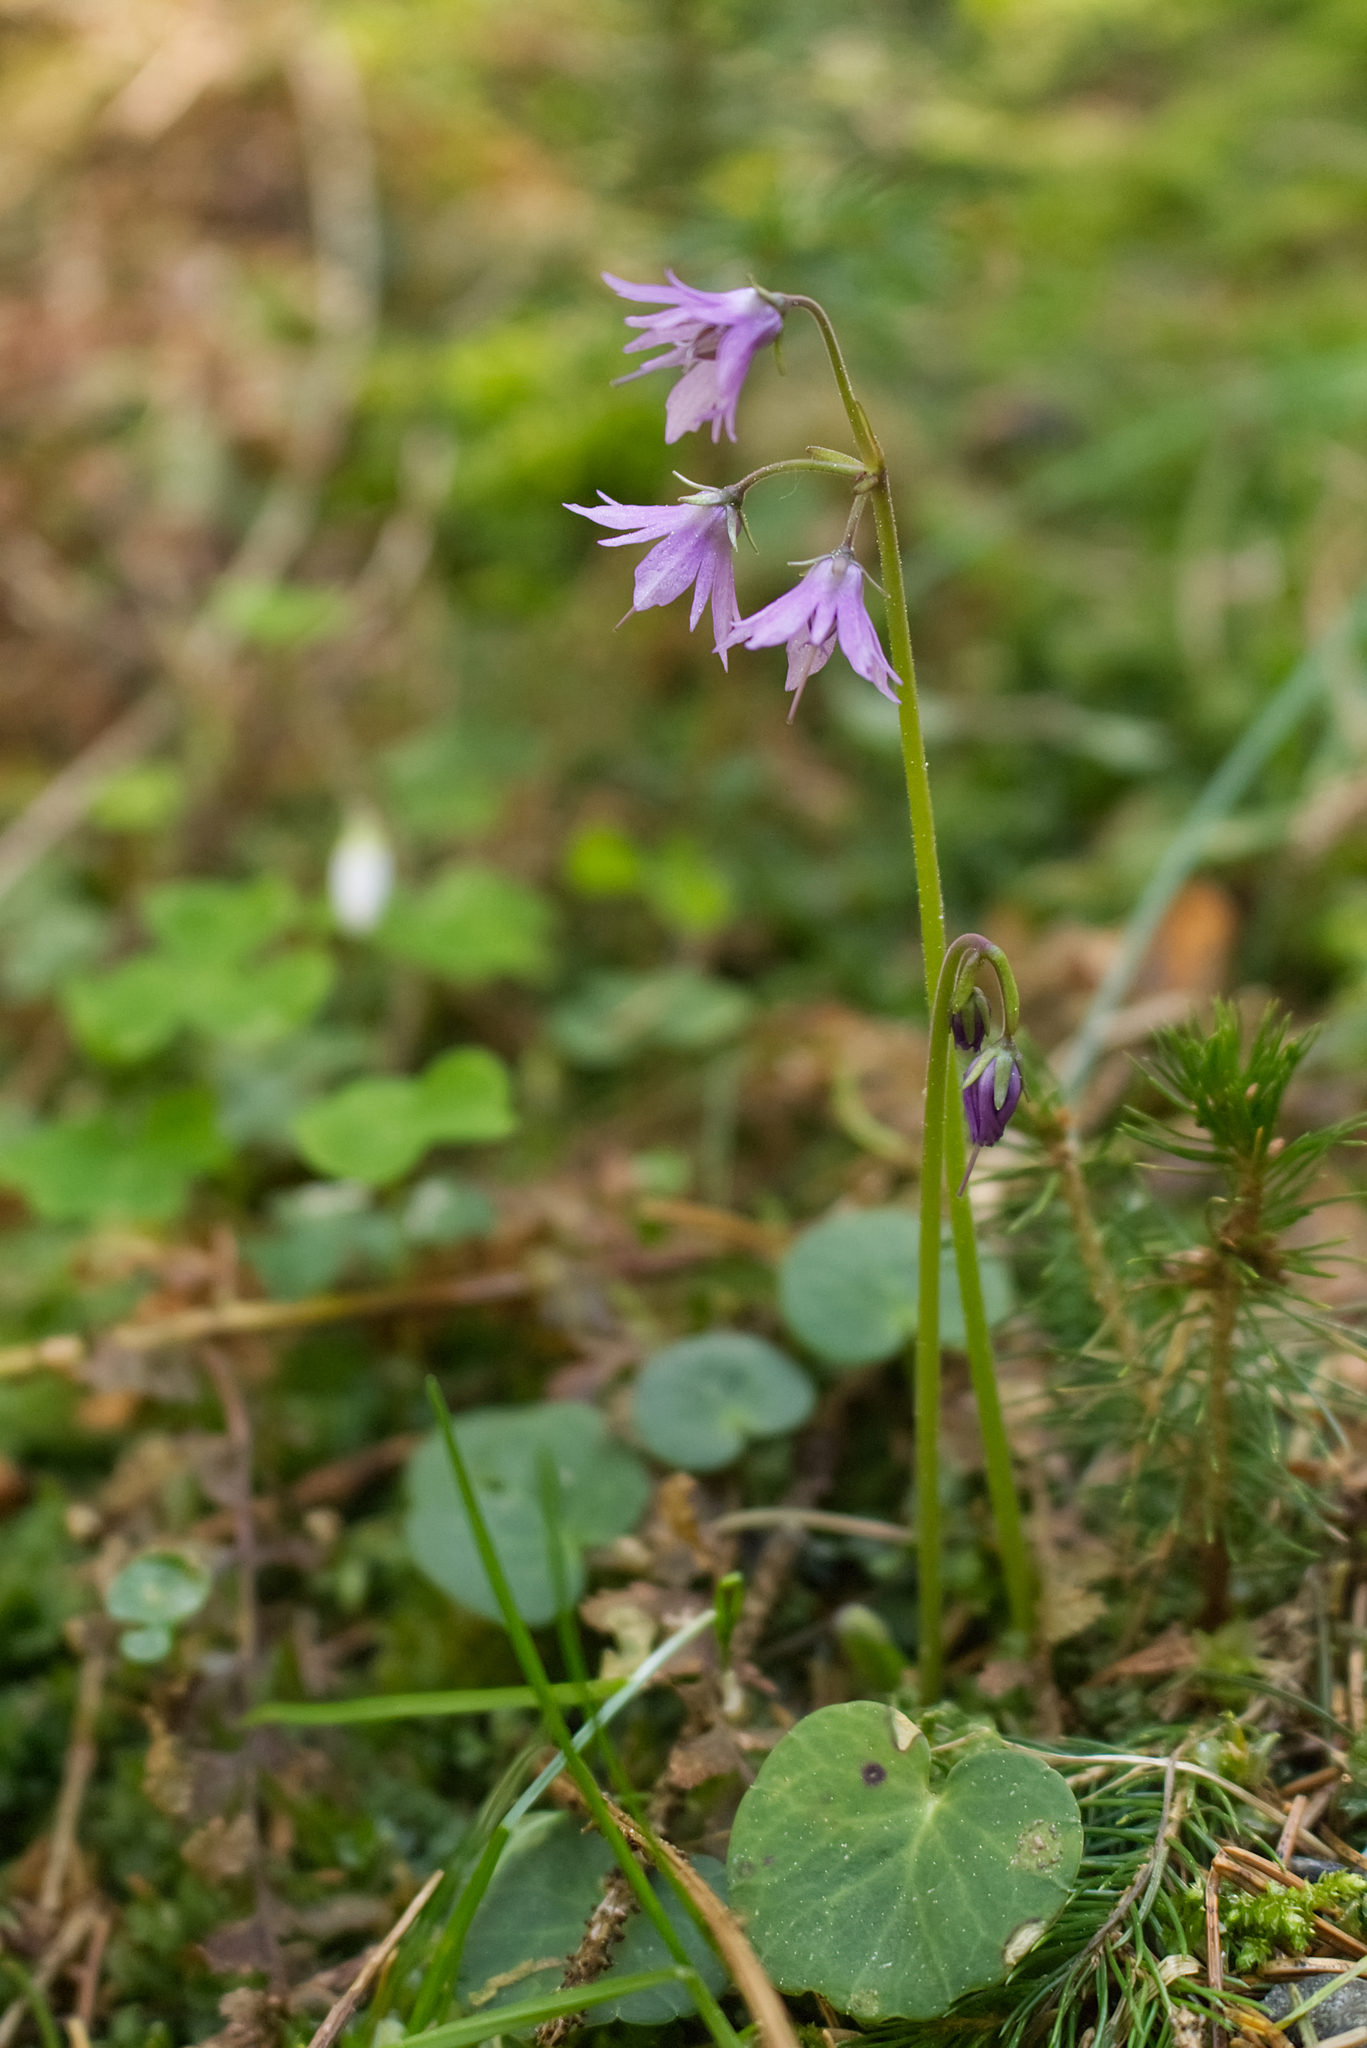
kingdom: Plantae
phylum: Tracheophyta
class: Magnoliopsida
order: Ericales
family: Primulaceae
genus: Soldanella
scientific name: Soldanella montana
